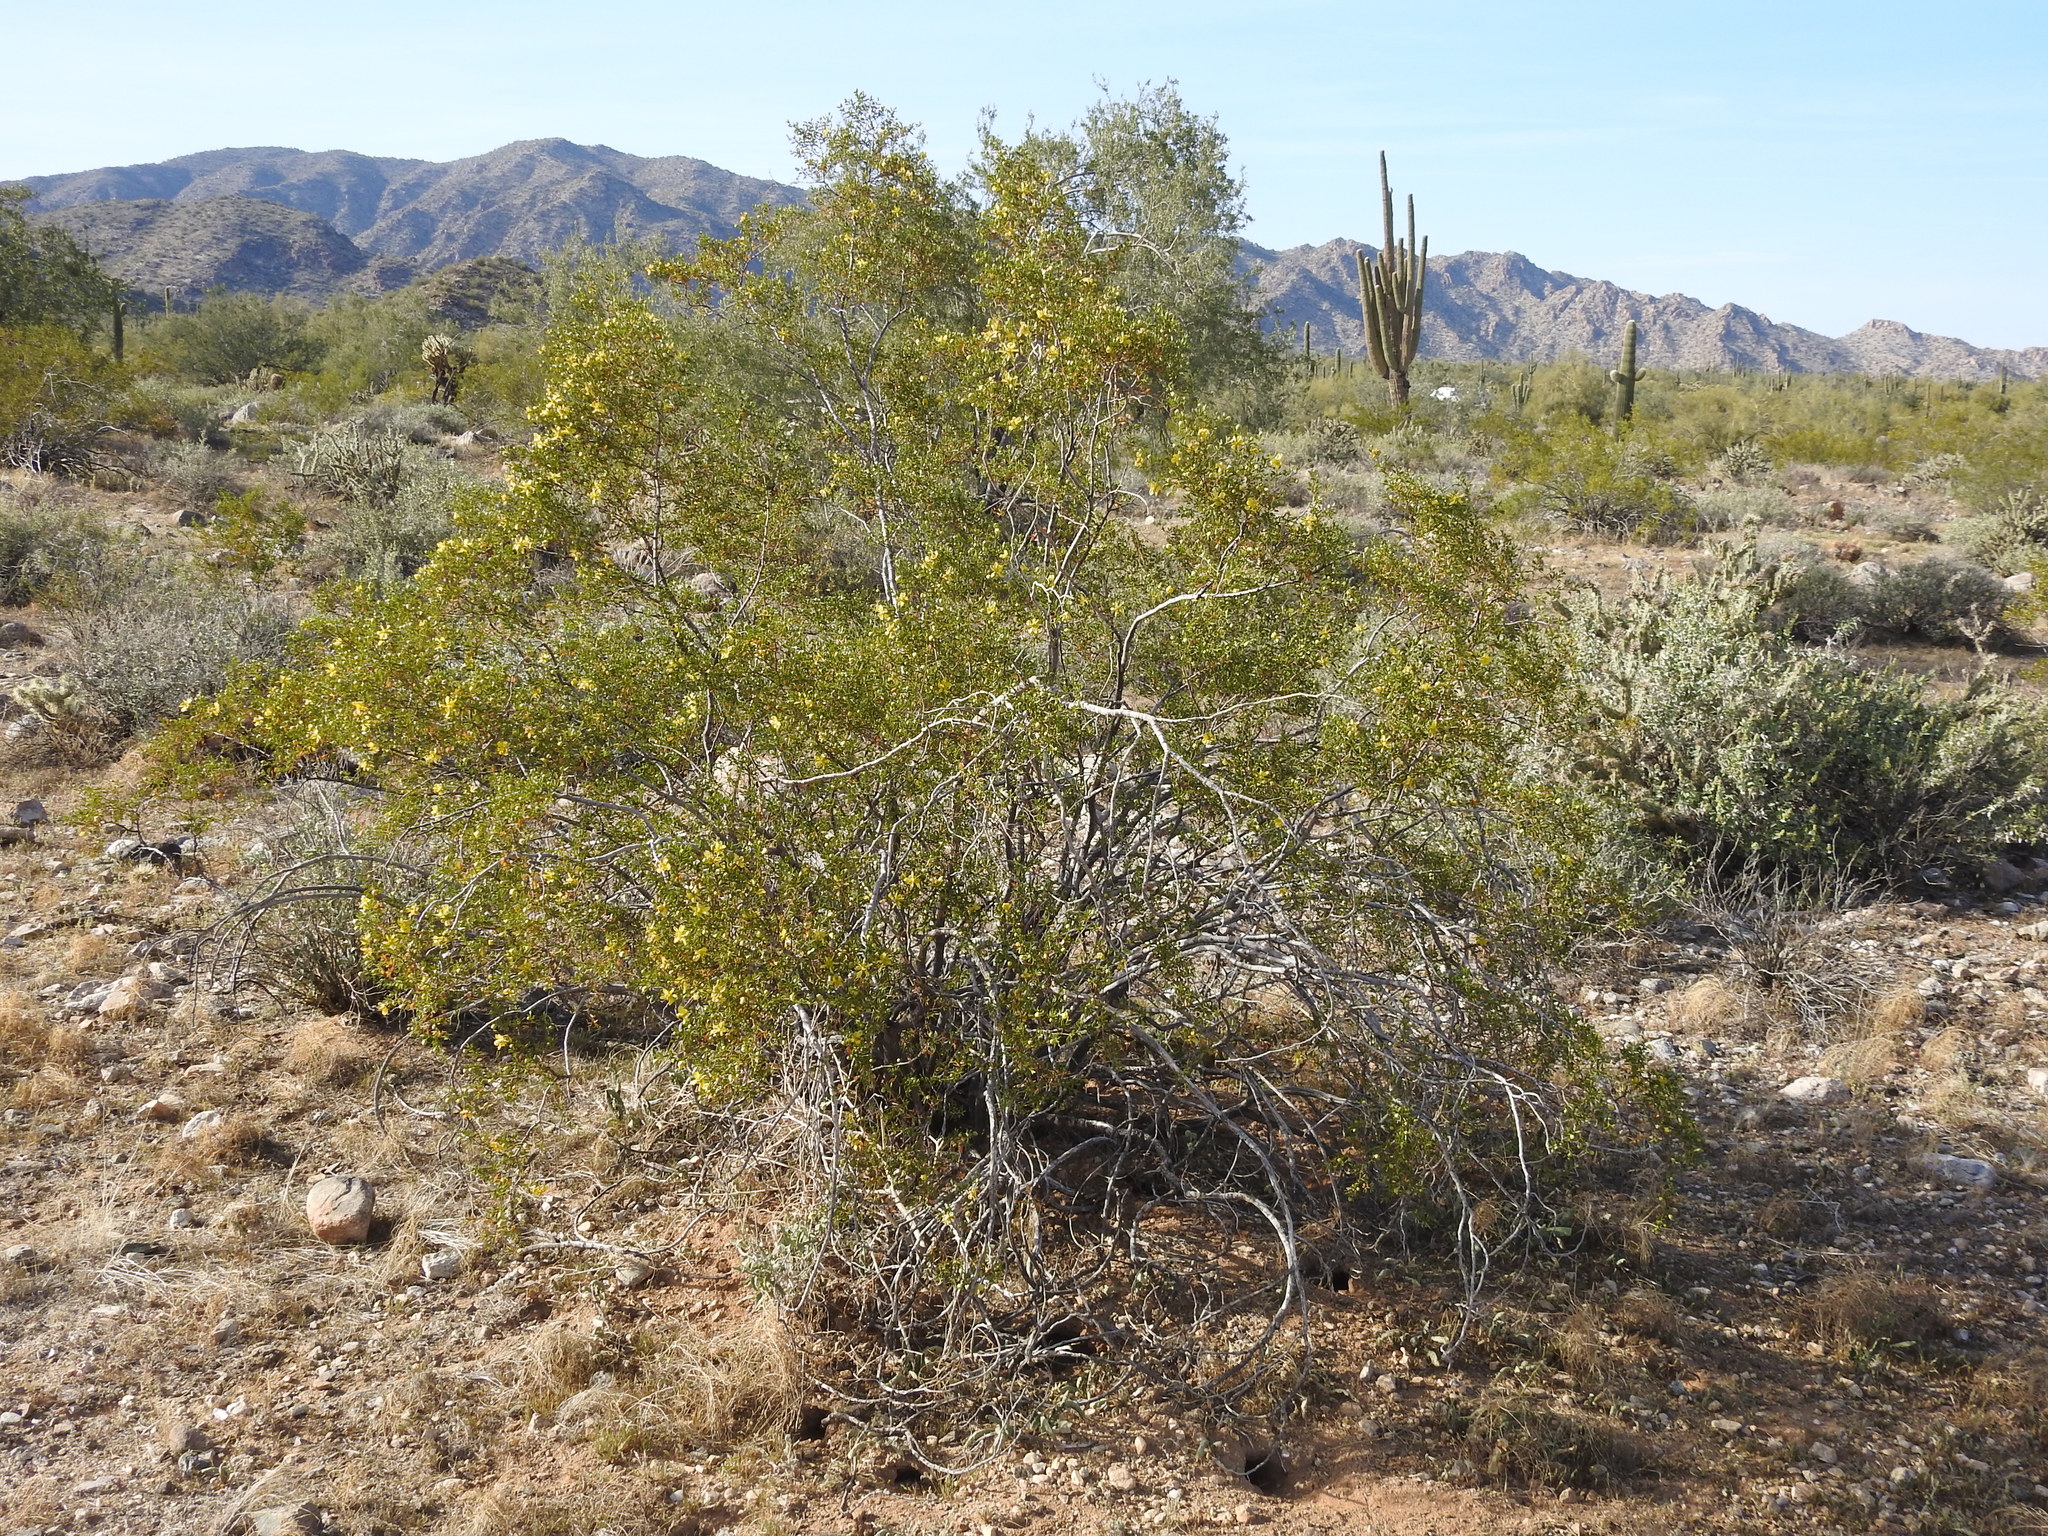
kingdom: Plantae
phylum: Tracheophyta
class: Magnoliopsida
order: Zygophyllales
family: Zygophyllaceae
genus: Larrea
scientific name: Larrea tridentata
